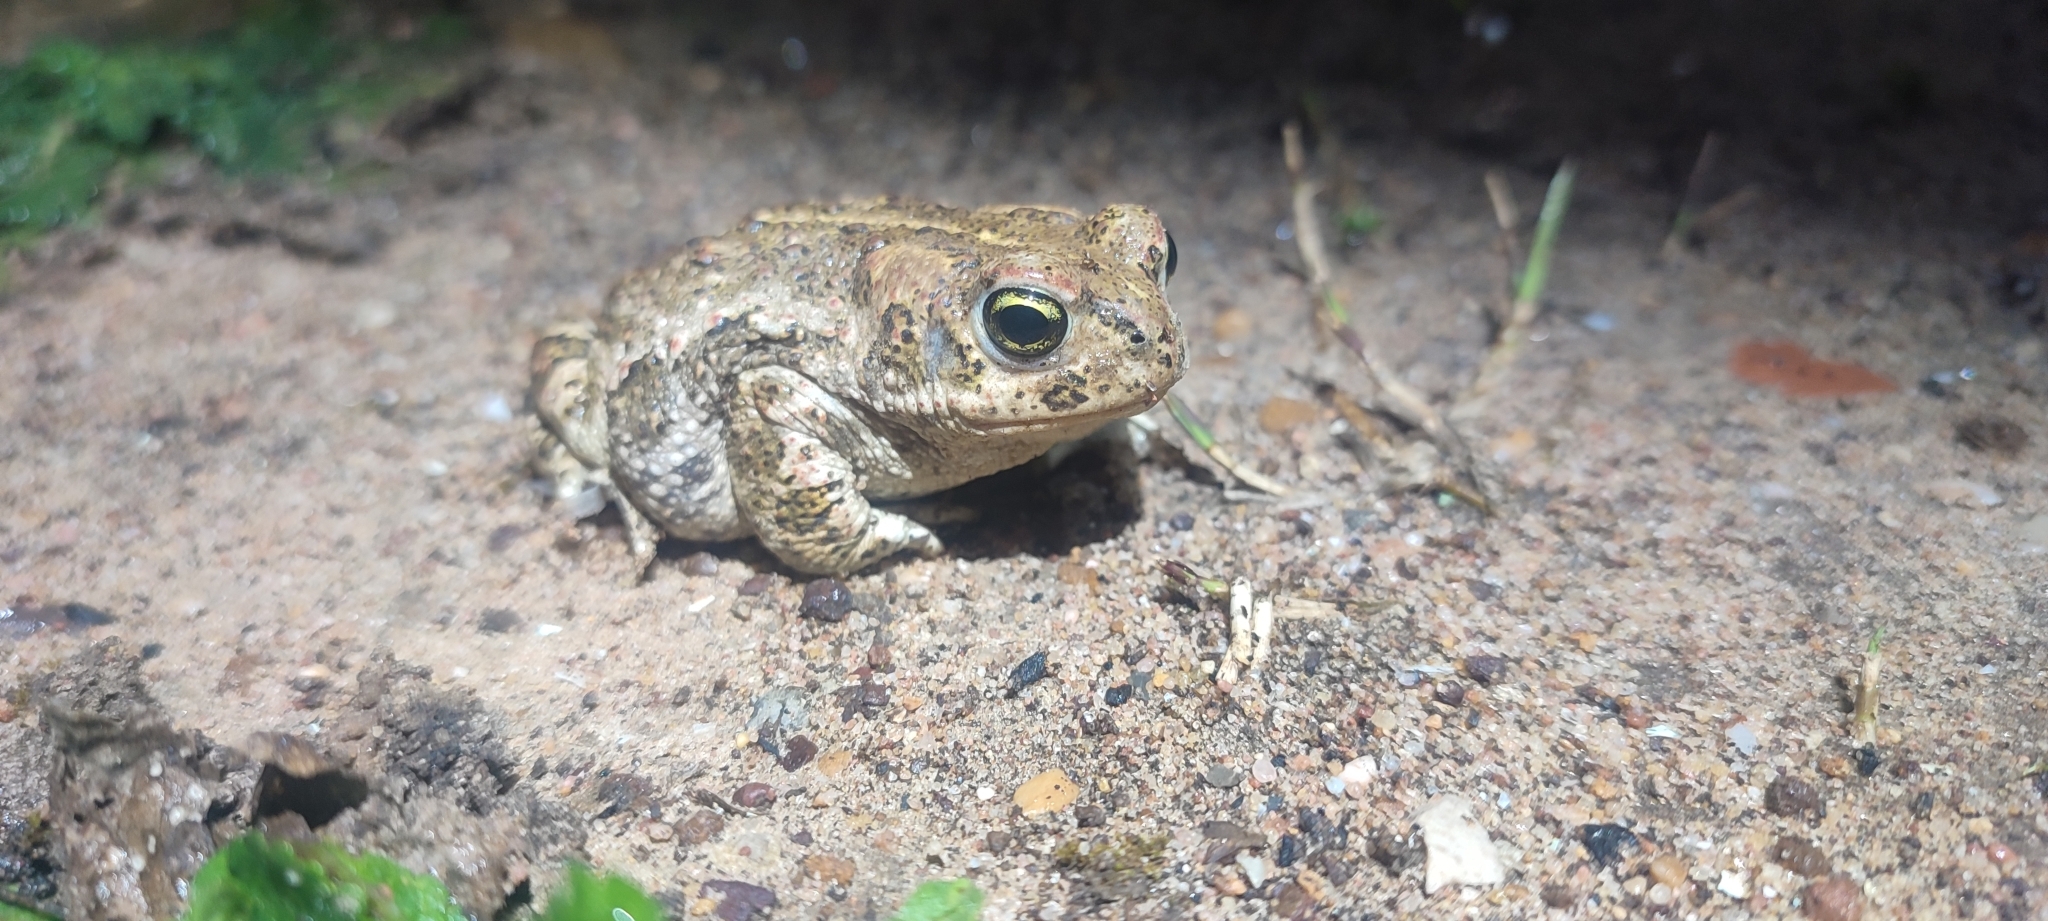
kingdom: Animalia
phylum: Chordata
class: Amphibia
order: Anura
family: Bufonidae
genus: Epidalea
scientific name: Epidalea calamita
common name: Natterjack toad
